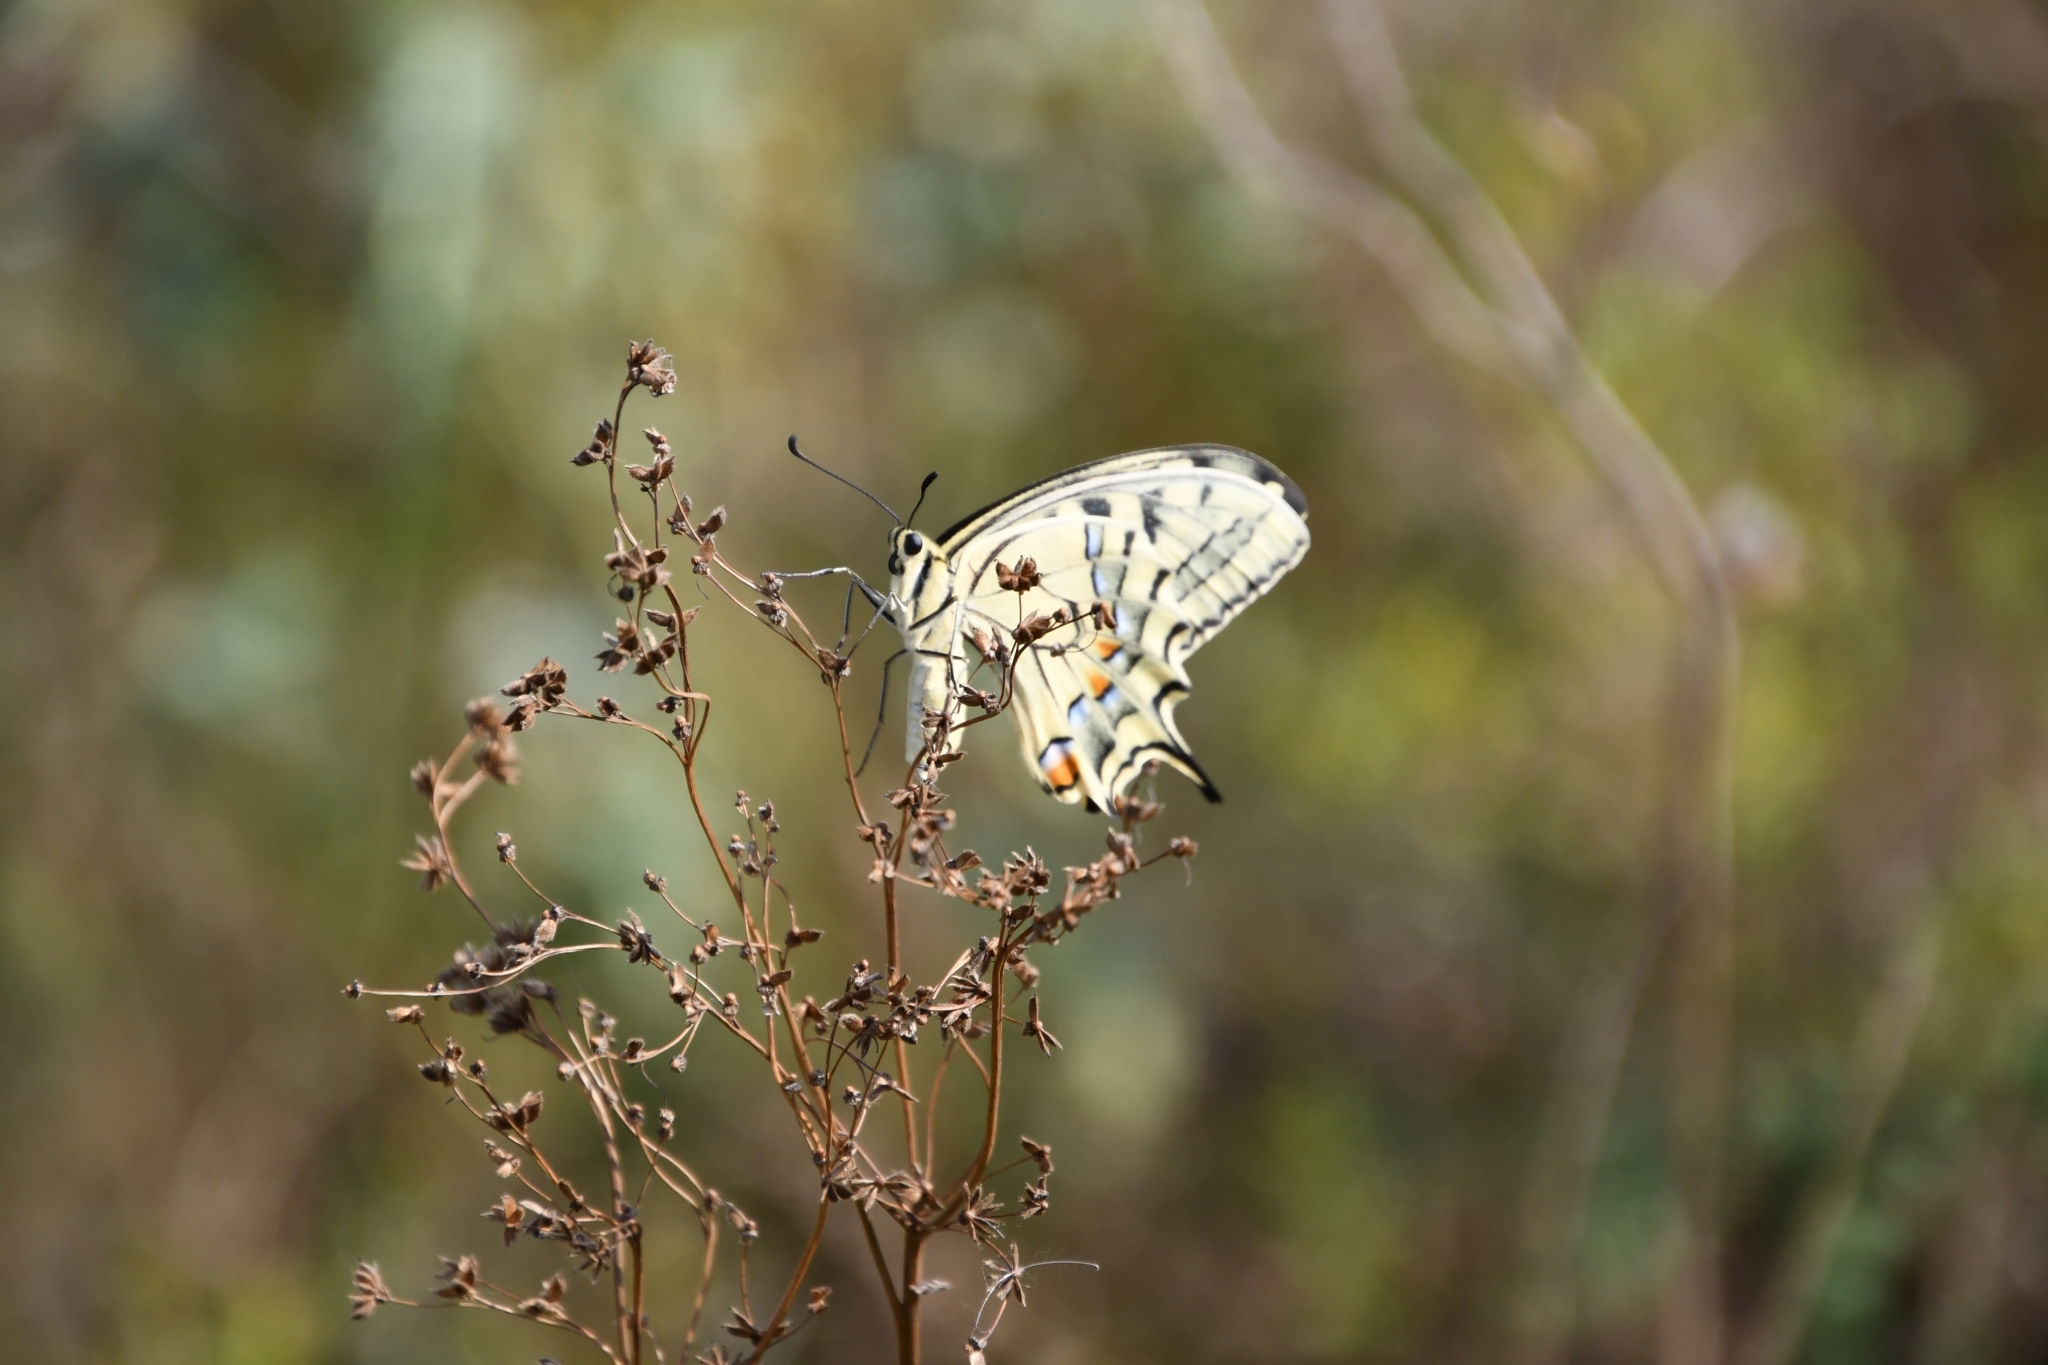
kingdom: Animalia
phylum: Arthropoda
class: Insecta
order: Lepidoptera
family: Papilionidae
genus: Papilio
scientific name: Papilio machaon
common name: Swallowtail
